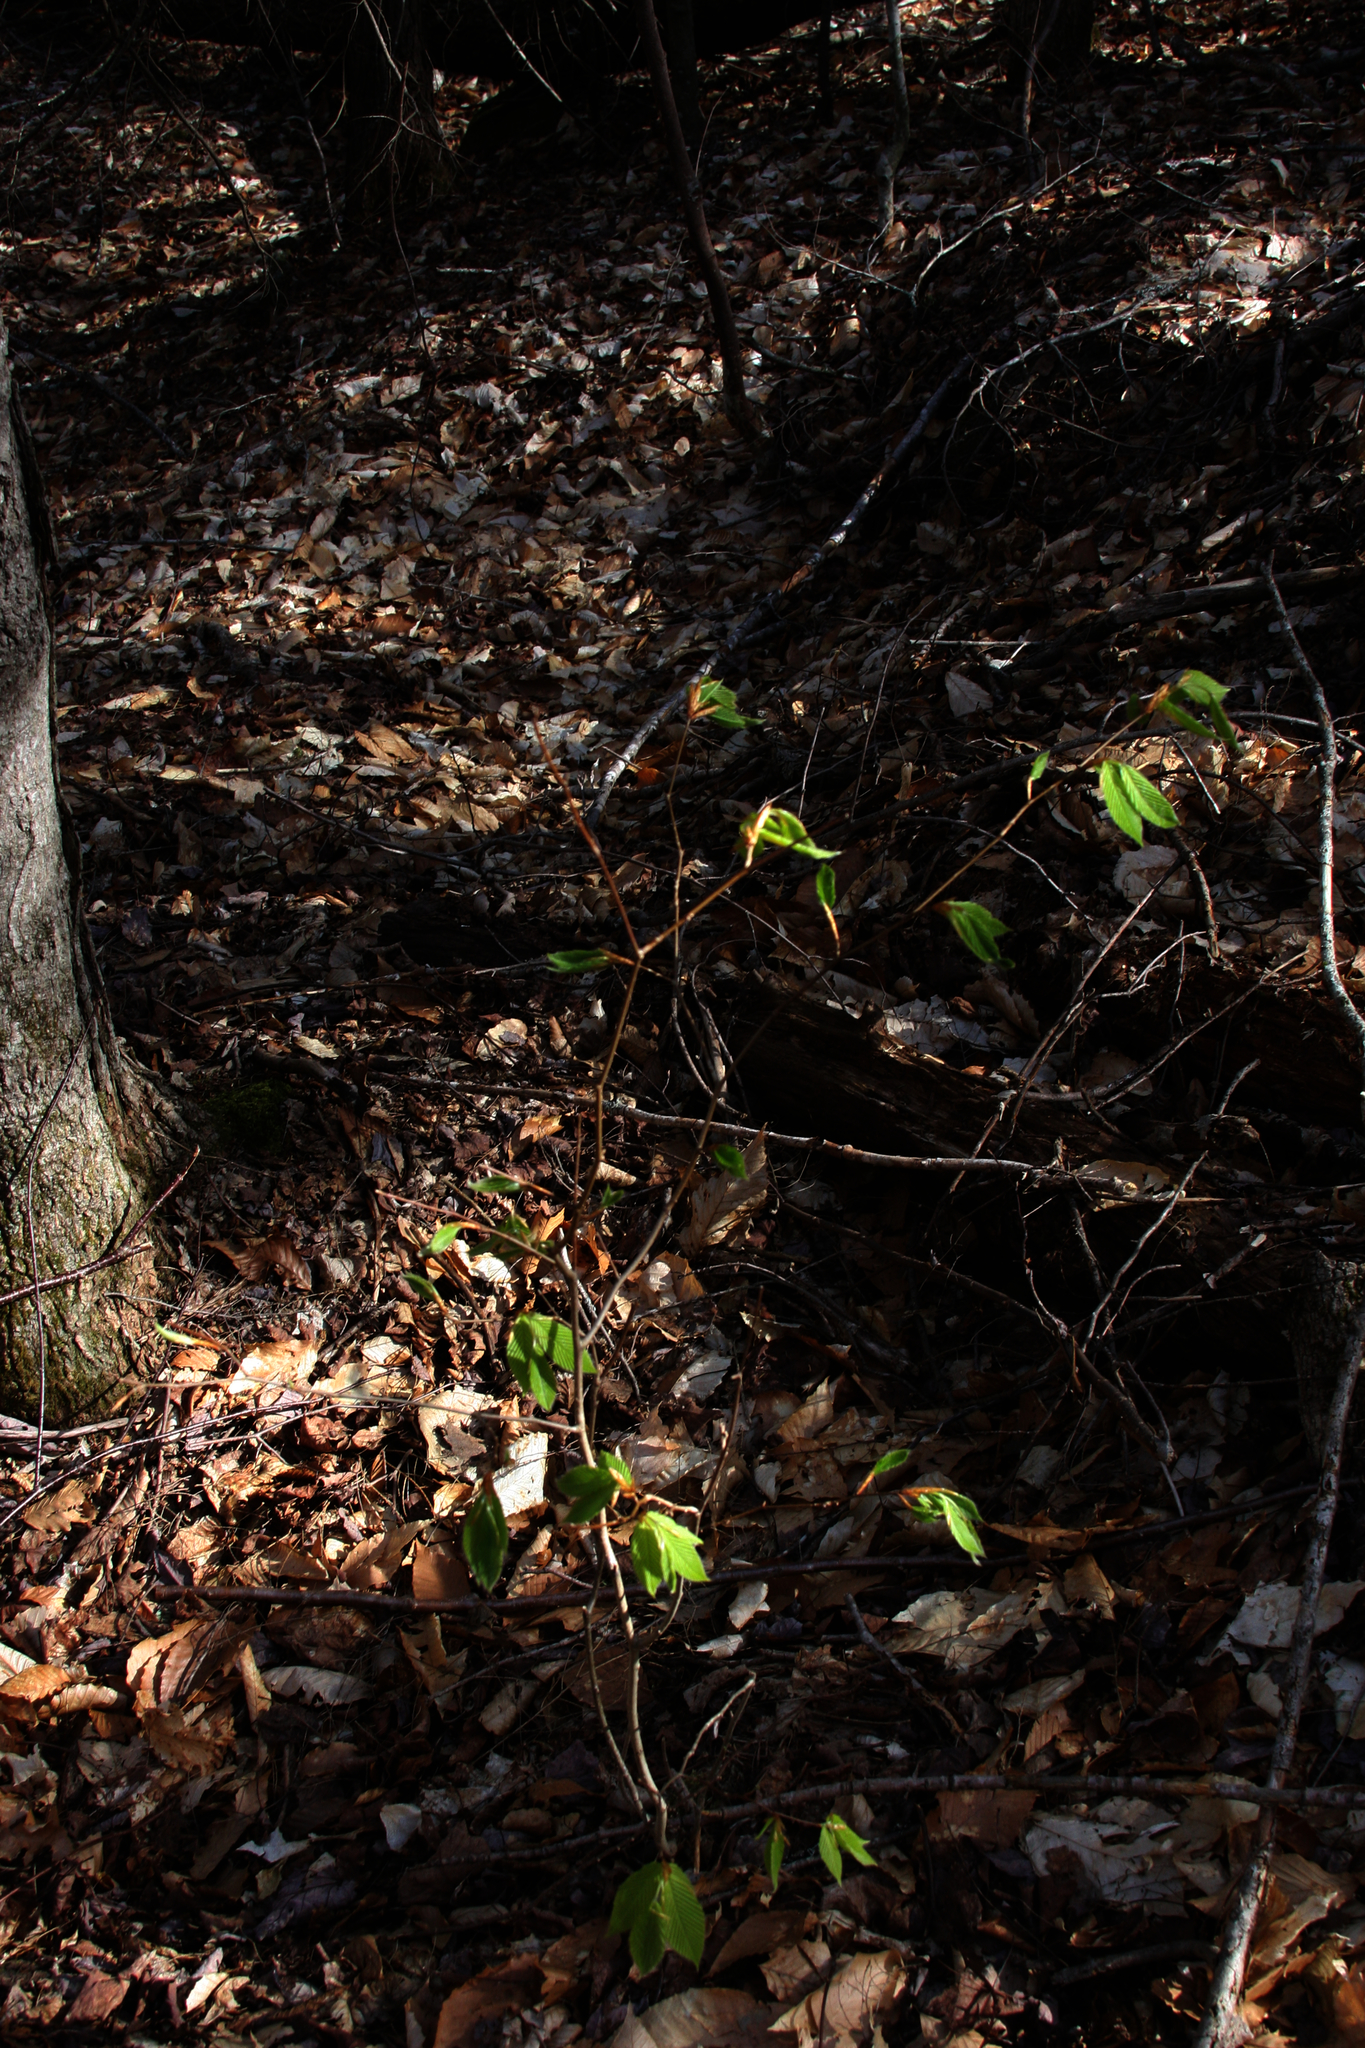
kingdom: Plantae
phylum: Tracheophyta
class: Magnoliopsida
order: Fagales
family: Fagaceae
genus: Fagus
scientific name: Fagus grandifolia
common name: American beech
